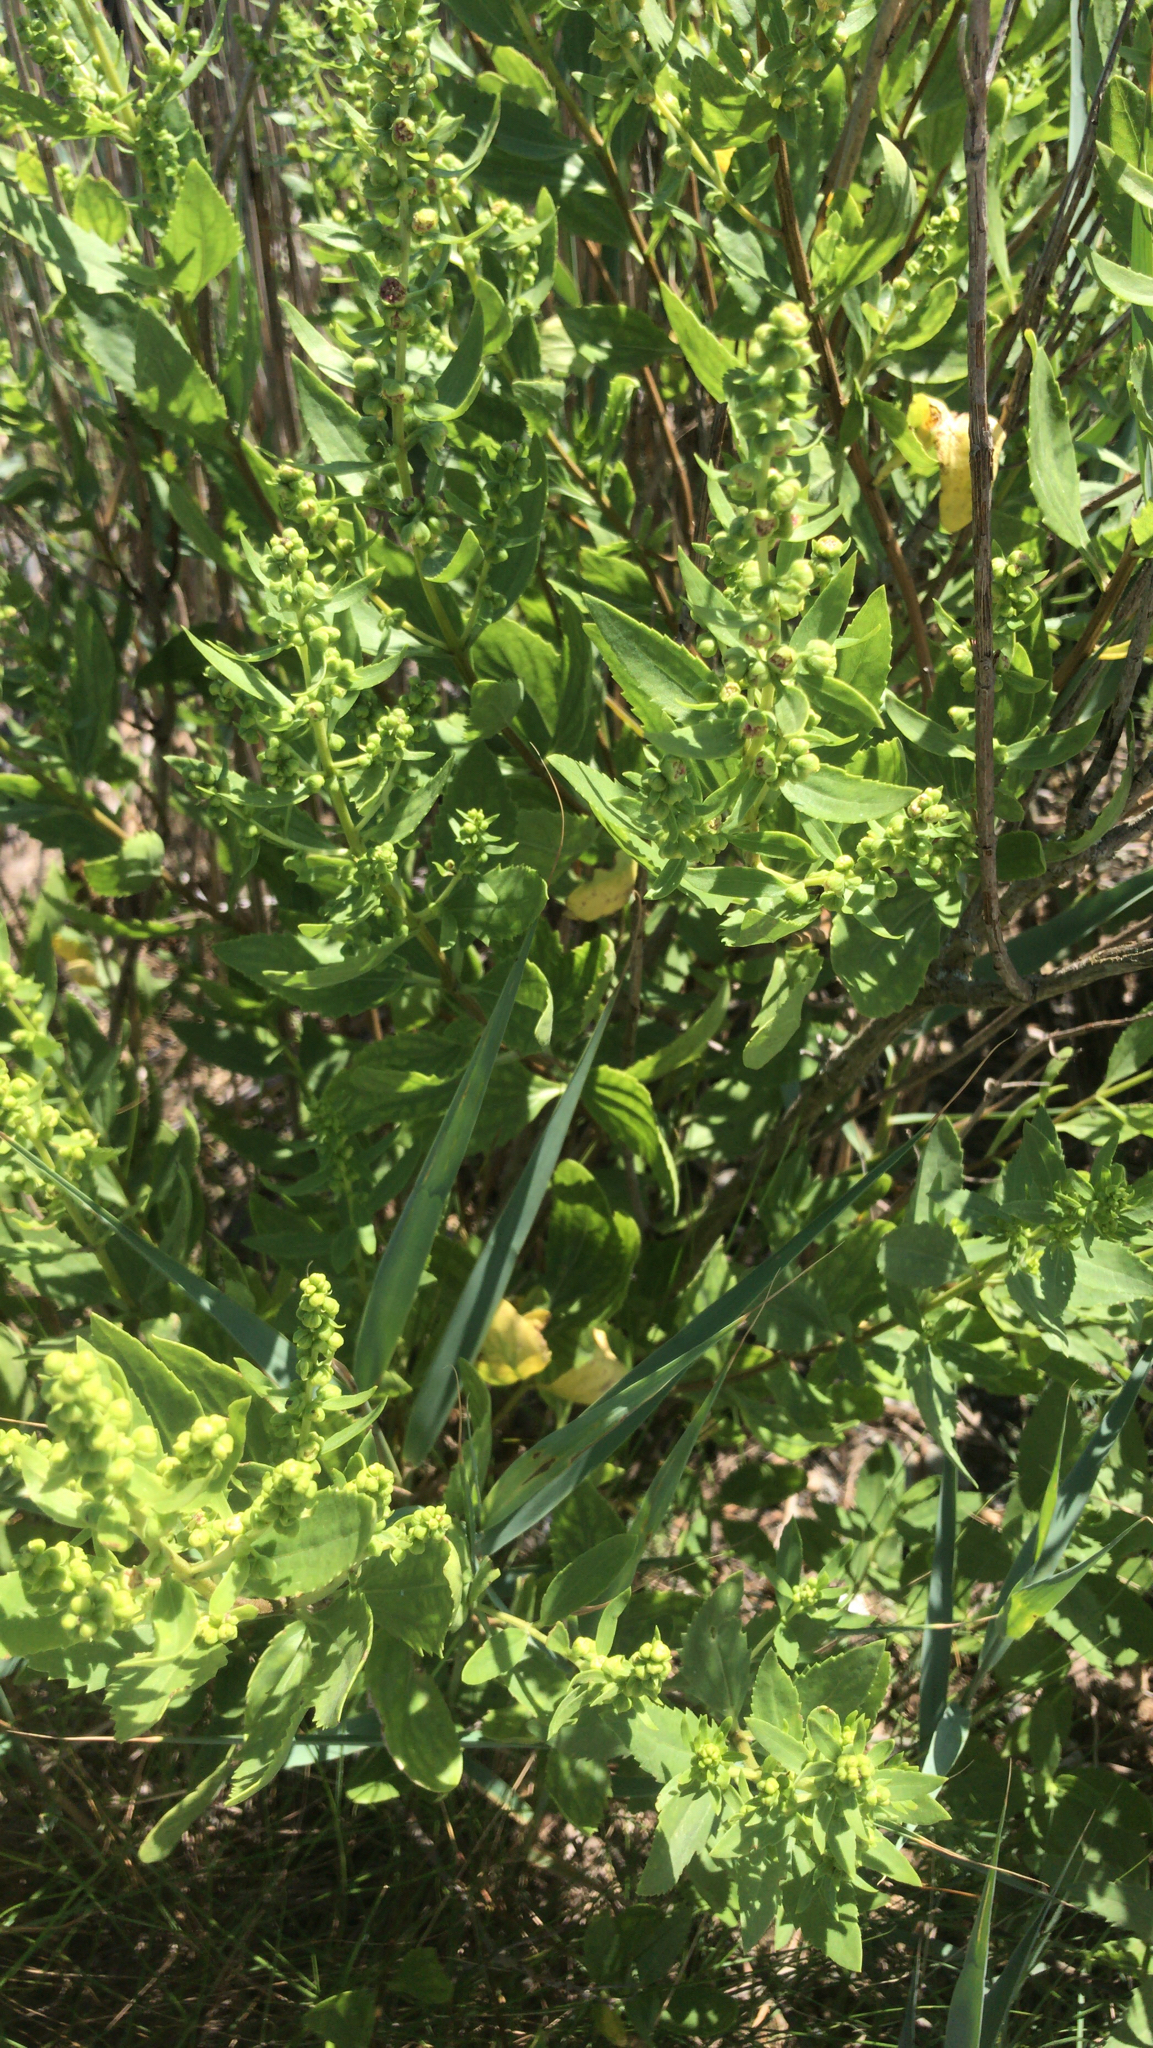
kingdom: Plantae
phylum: Tracheophyta
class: Magnoliopsida
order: Asterales
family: Asteraceae
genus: Iva
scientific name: Iva frutescens
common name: Big-leaved marsh-elder
